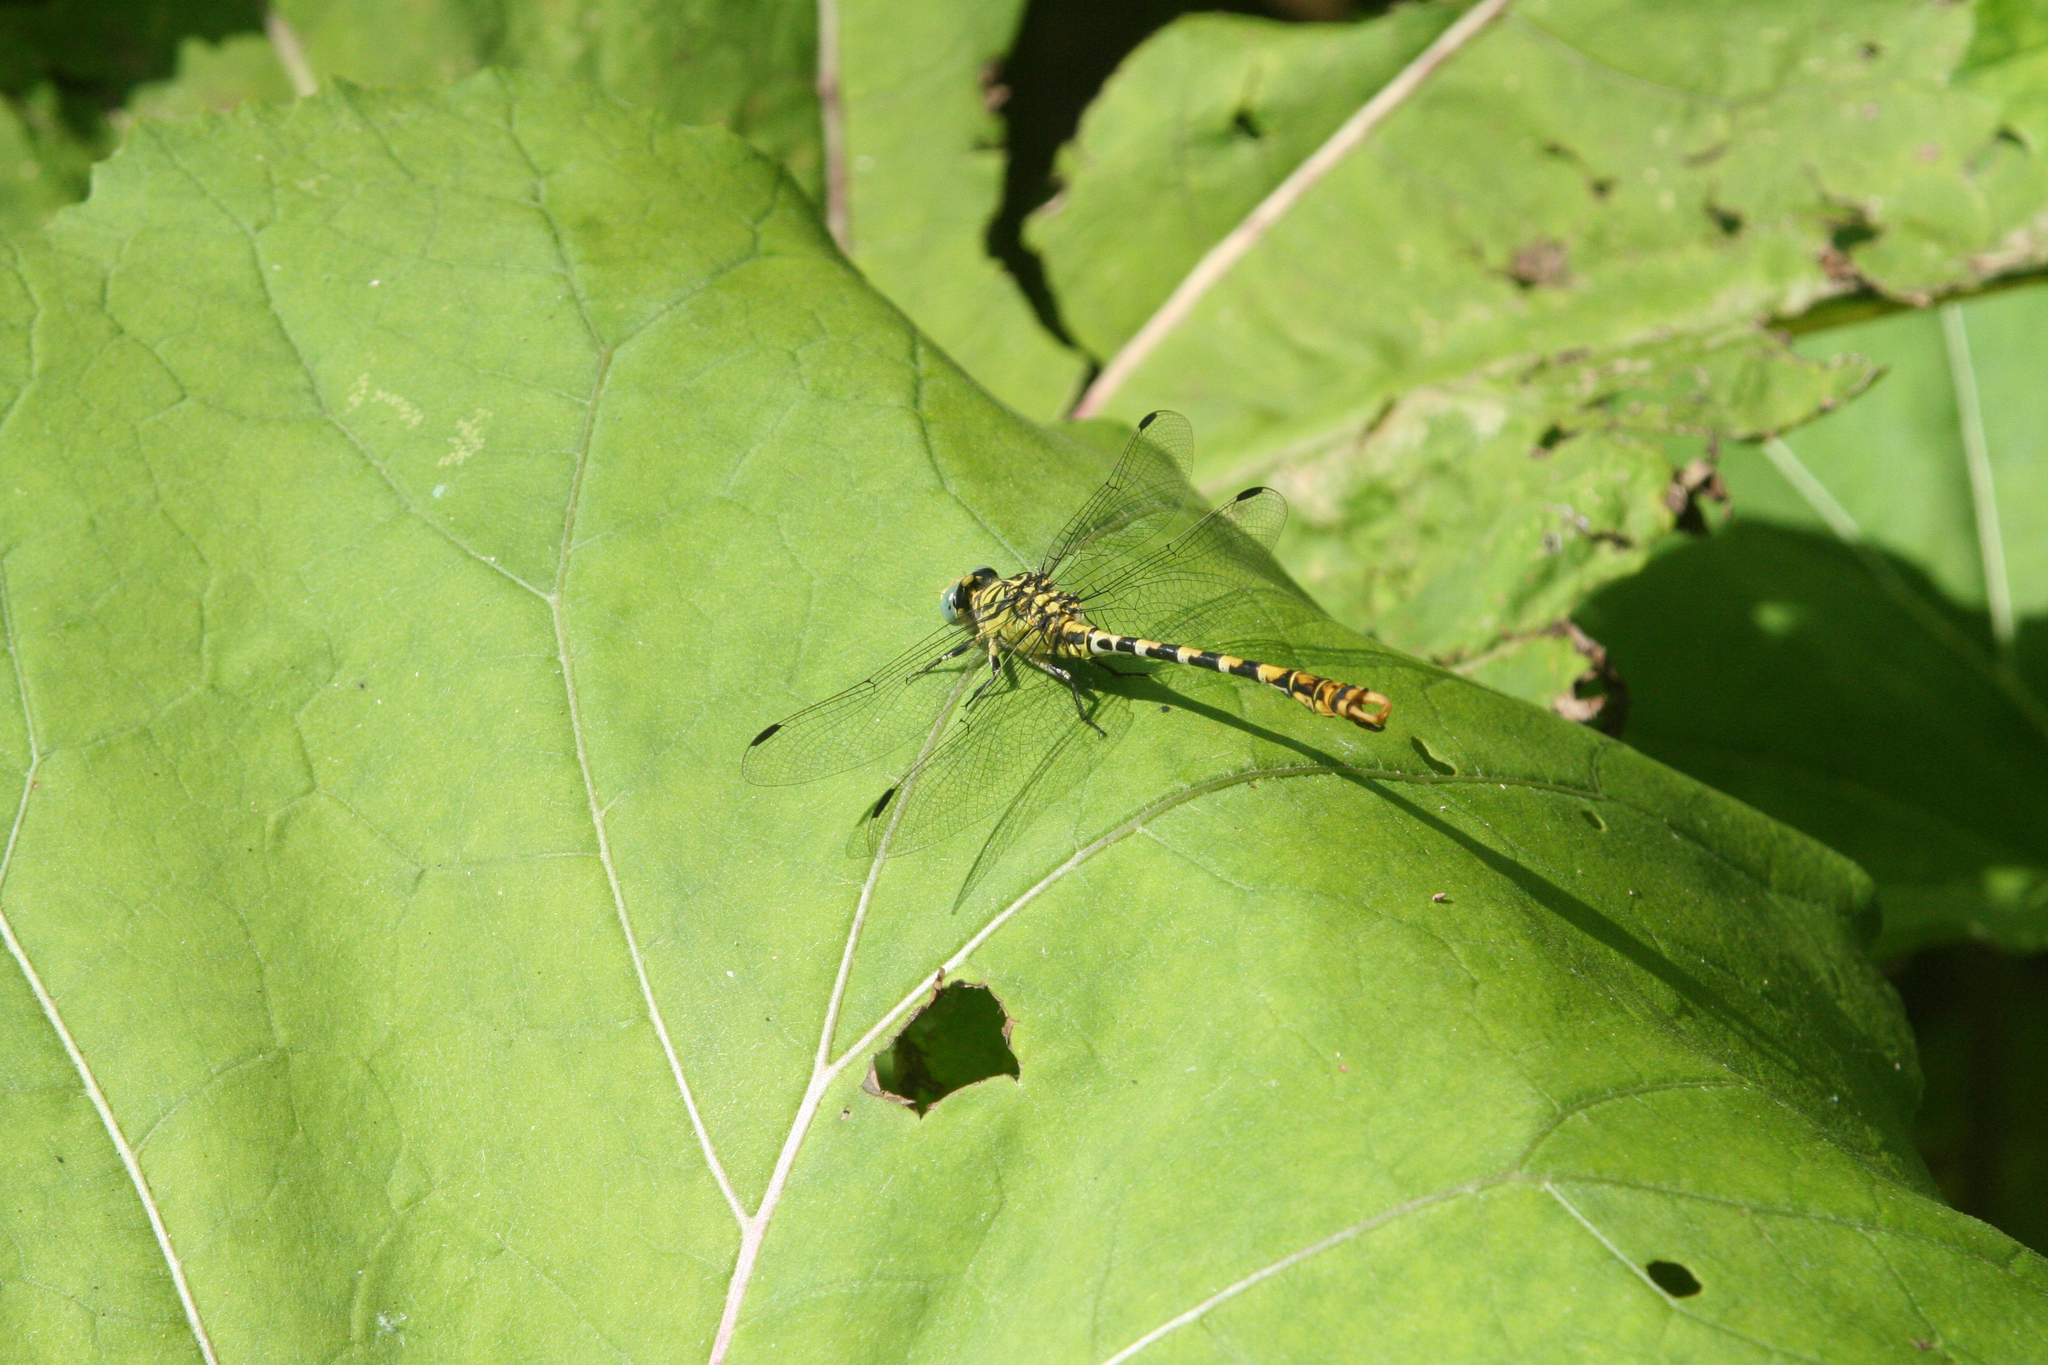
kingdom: Animalia
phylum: Arthropoda
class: Insecta
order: Odonata
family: Gomphidae
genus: Onychogomphus
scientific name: Onychogomphus forcipatus
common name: Small pincertail
